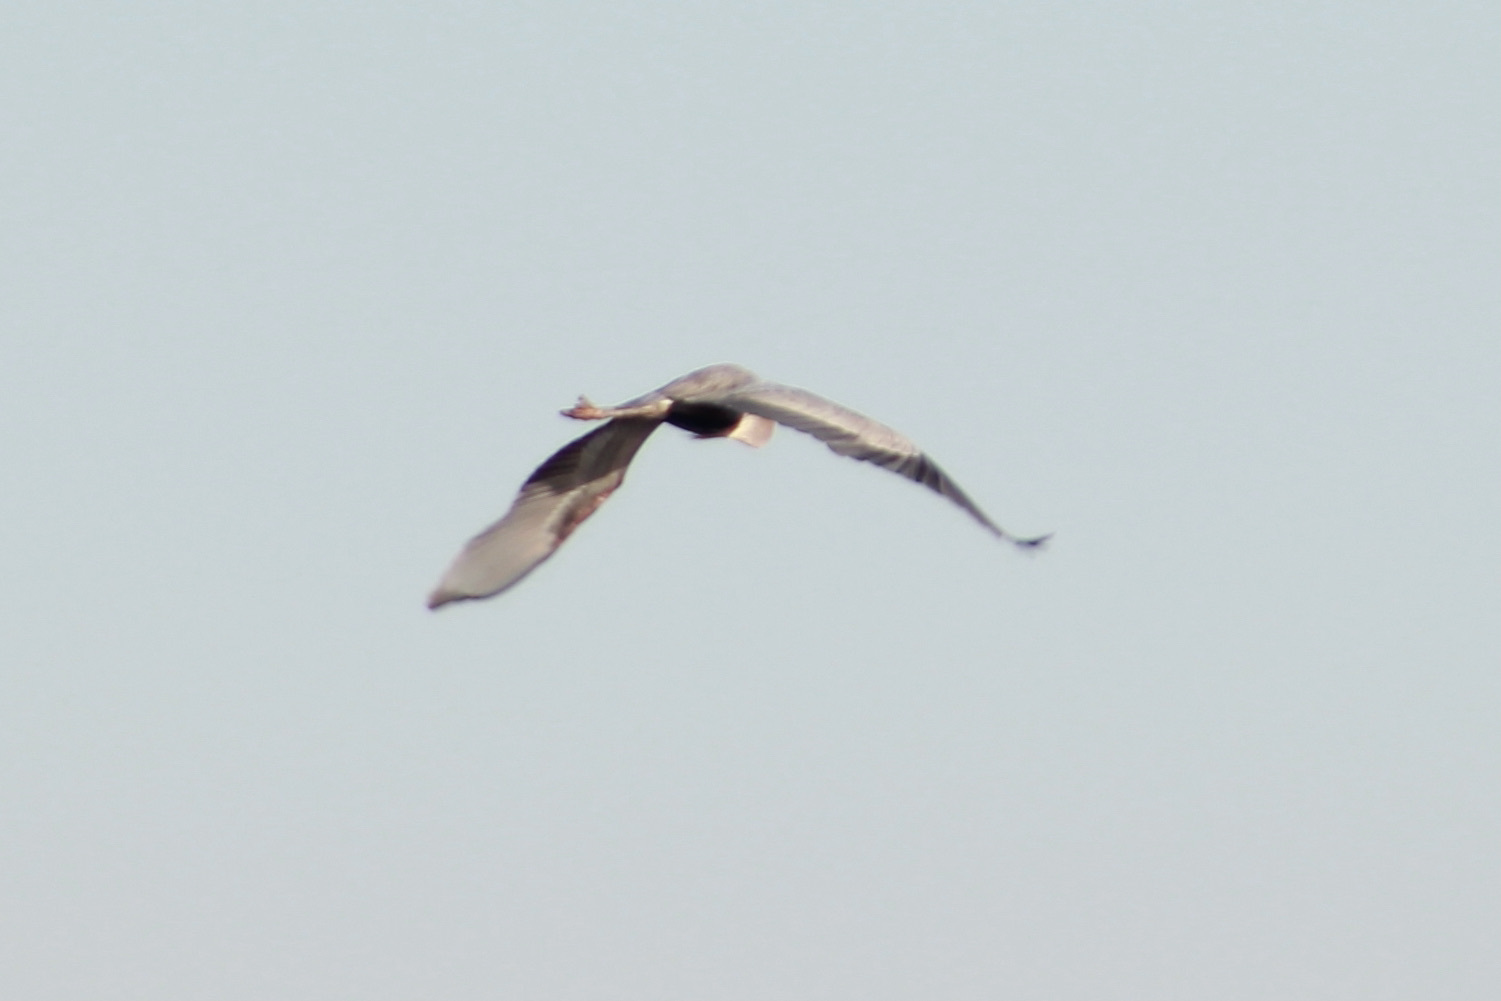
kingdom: Animalia
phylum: Chordata
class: Aves
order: Pelecaniformes
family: Ardeidae
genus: Ardea
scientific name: Ardea herodias
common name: Great blue heron
